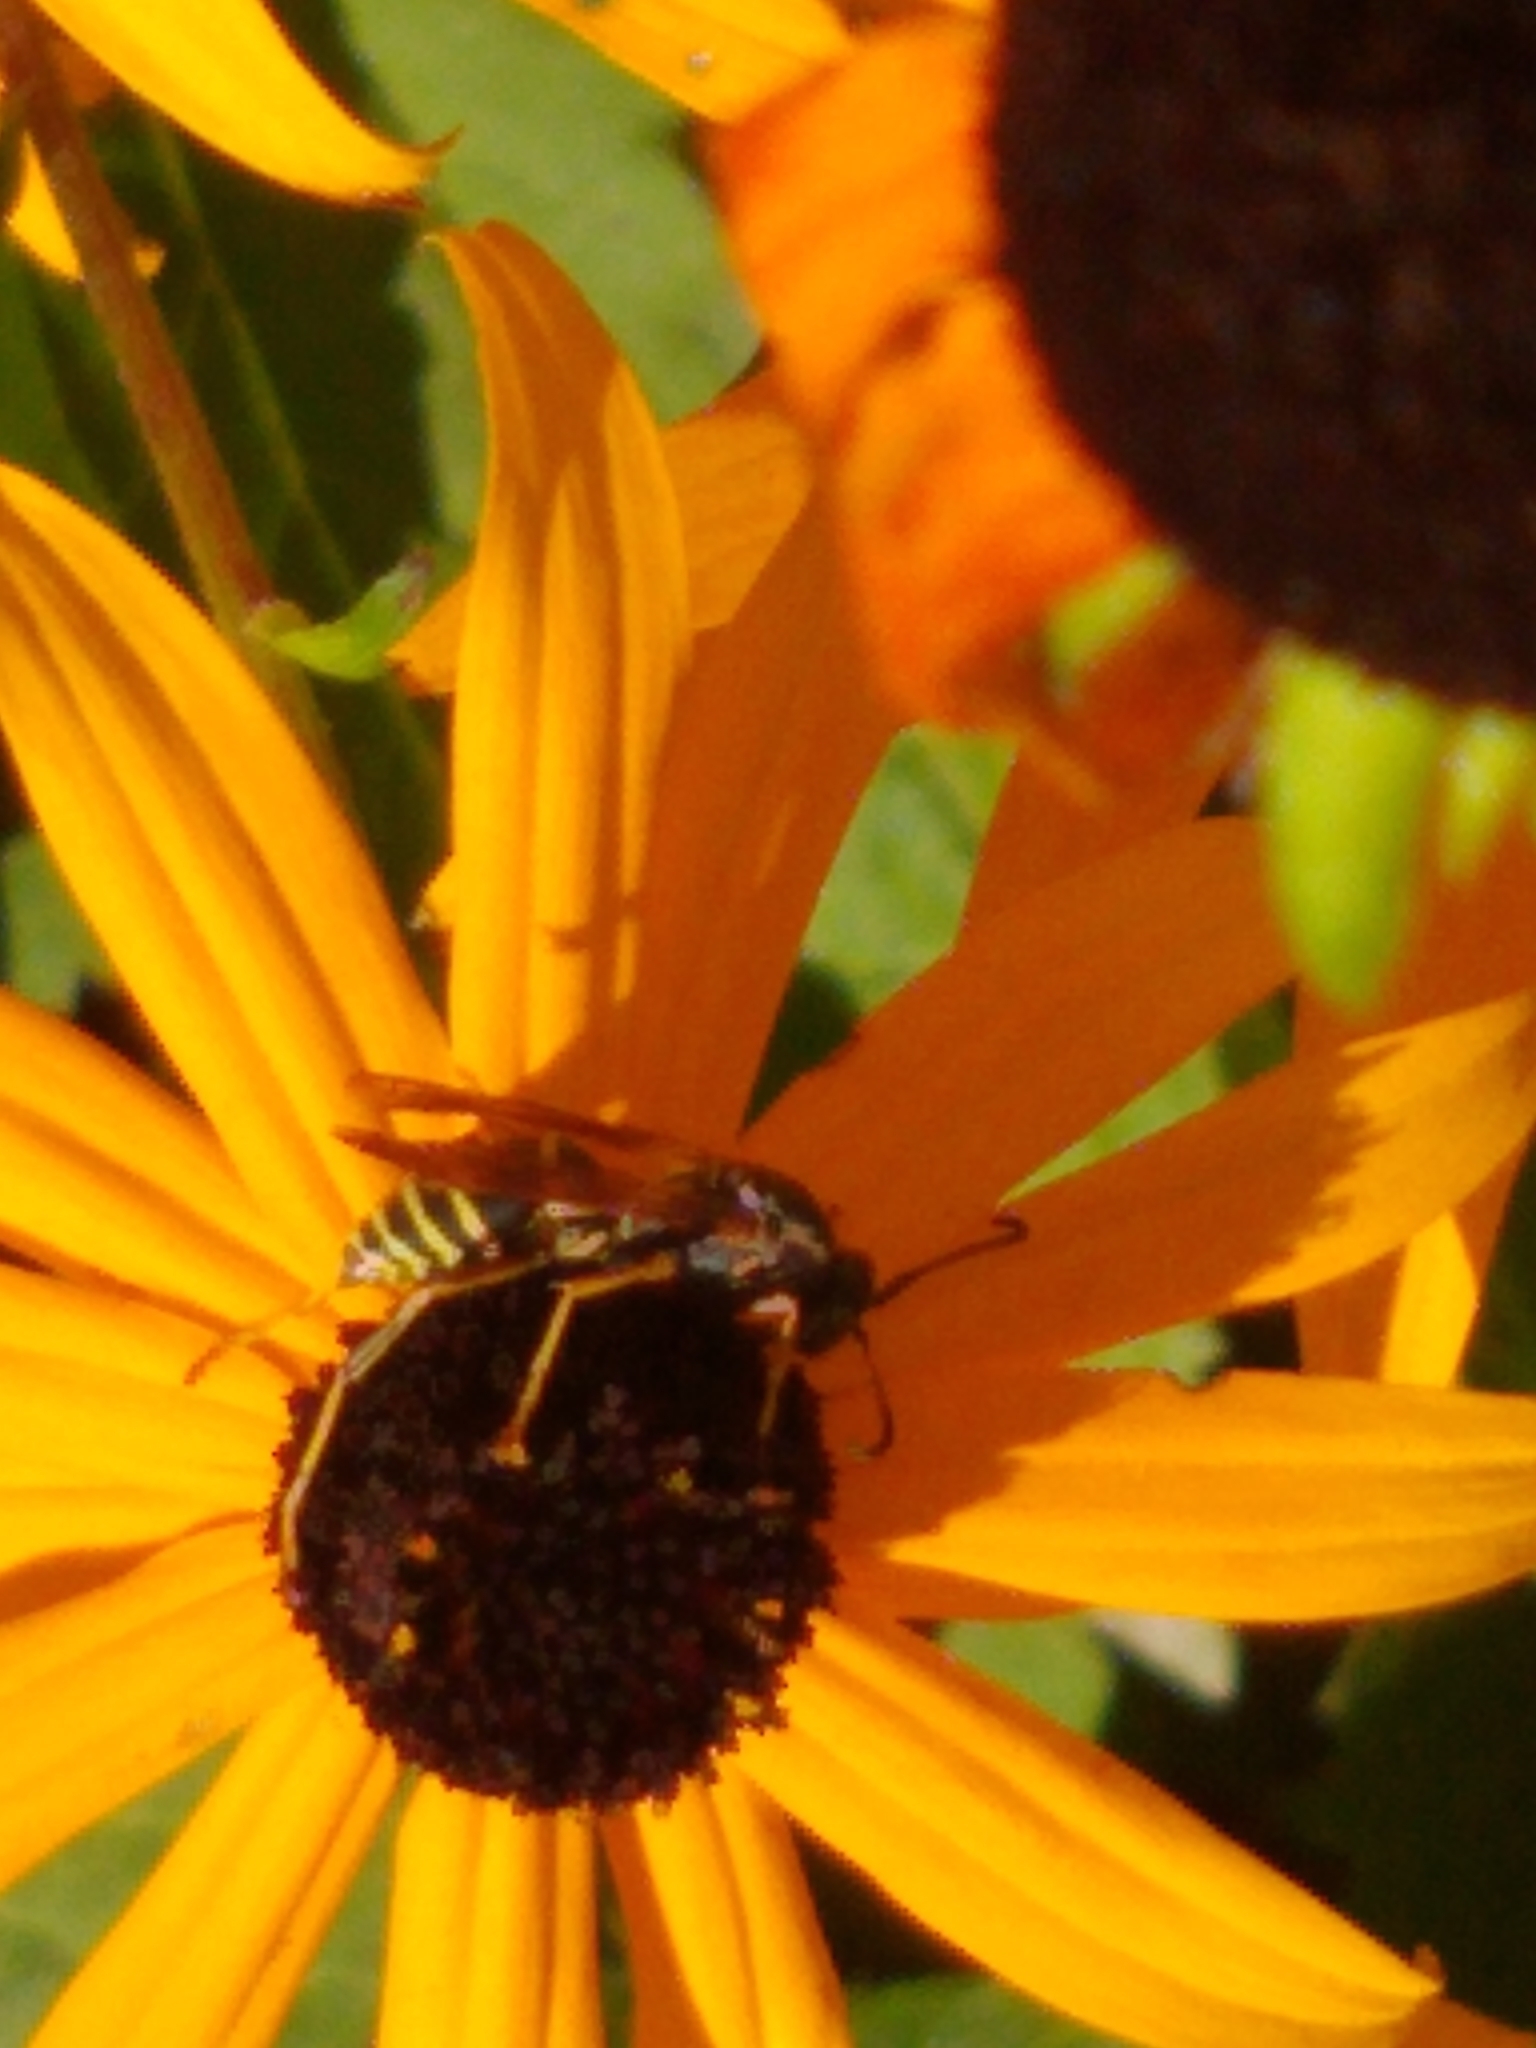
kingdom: Animalia
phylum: Arthropoda
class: Insecta
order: Hymenoptera
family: Eumenidae
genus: Polistes
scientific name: Polistes fuscatus
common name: Dark paper wasp
